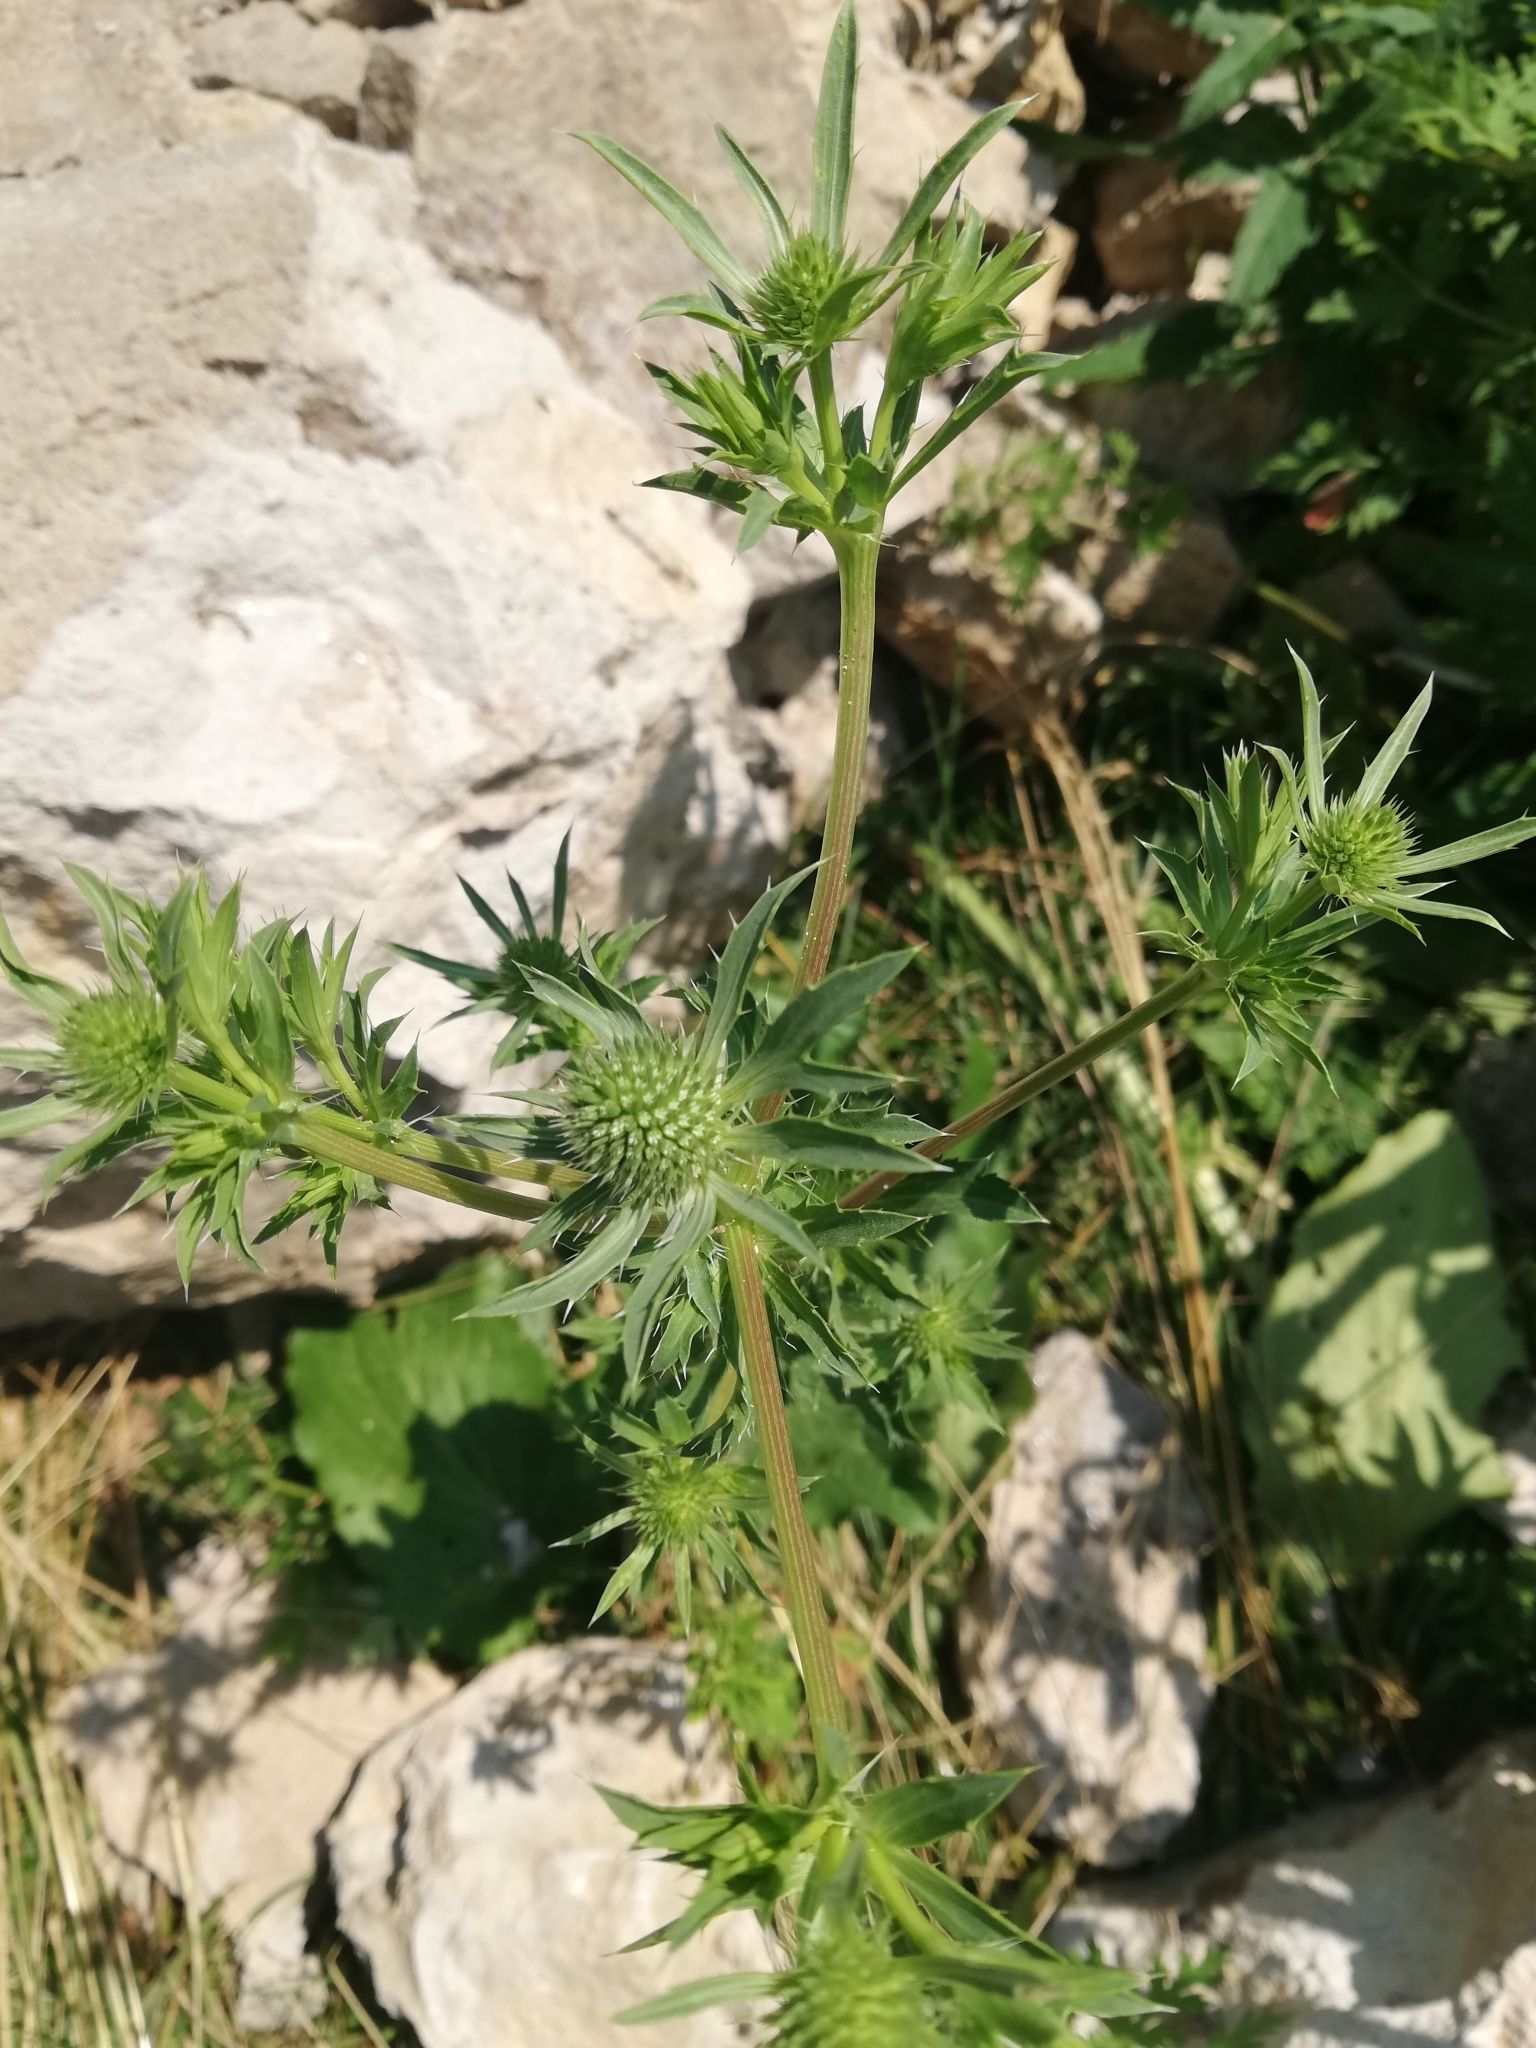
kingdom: Plantae
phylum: Tracheophyta
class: Magnoliopsida
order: Apiales
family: Apiaceae
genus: Eryngium
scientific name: Eryngium planum
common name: Blue eryngo
